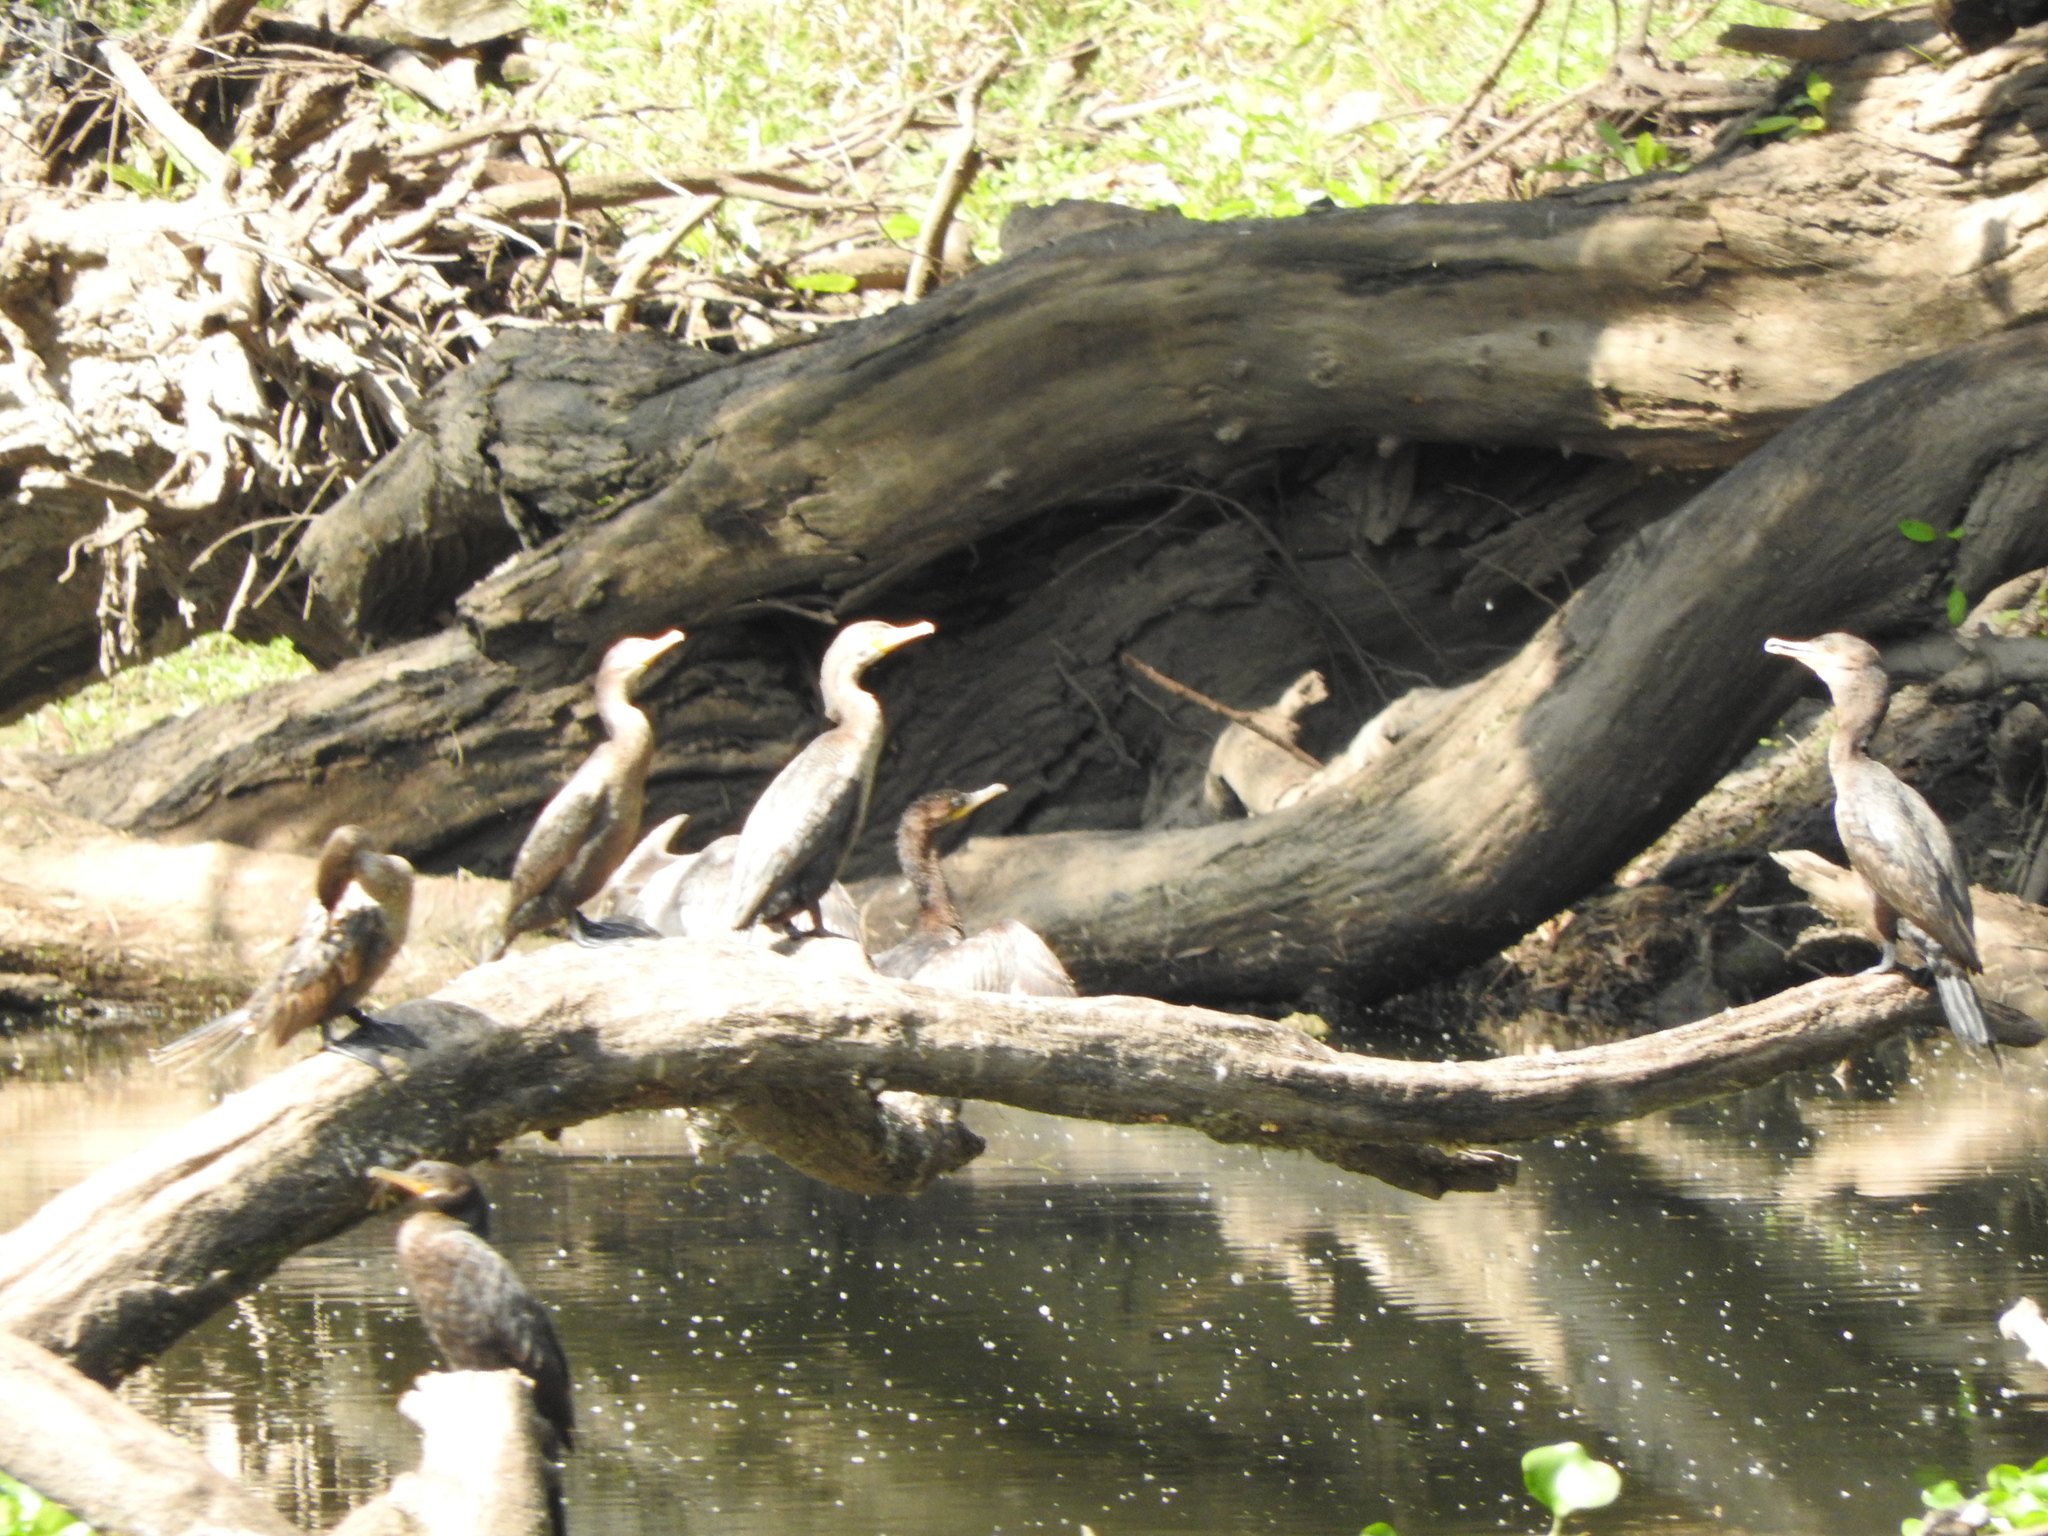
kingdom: Animalia
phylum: Chordata
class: Aves
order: Suliformes
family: Phalacrocoracidae
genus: Phalacrocorax
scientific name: Phalacrocorax brasilianus
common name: Neotropic cormorant
